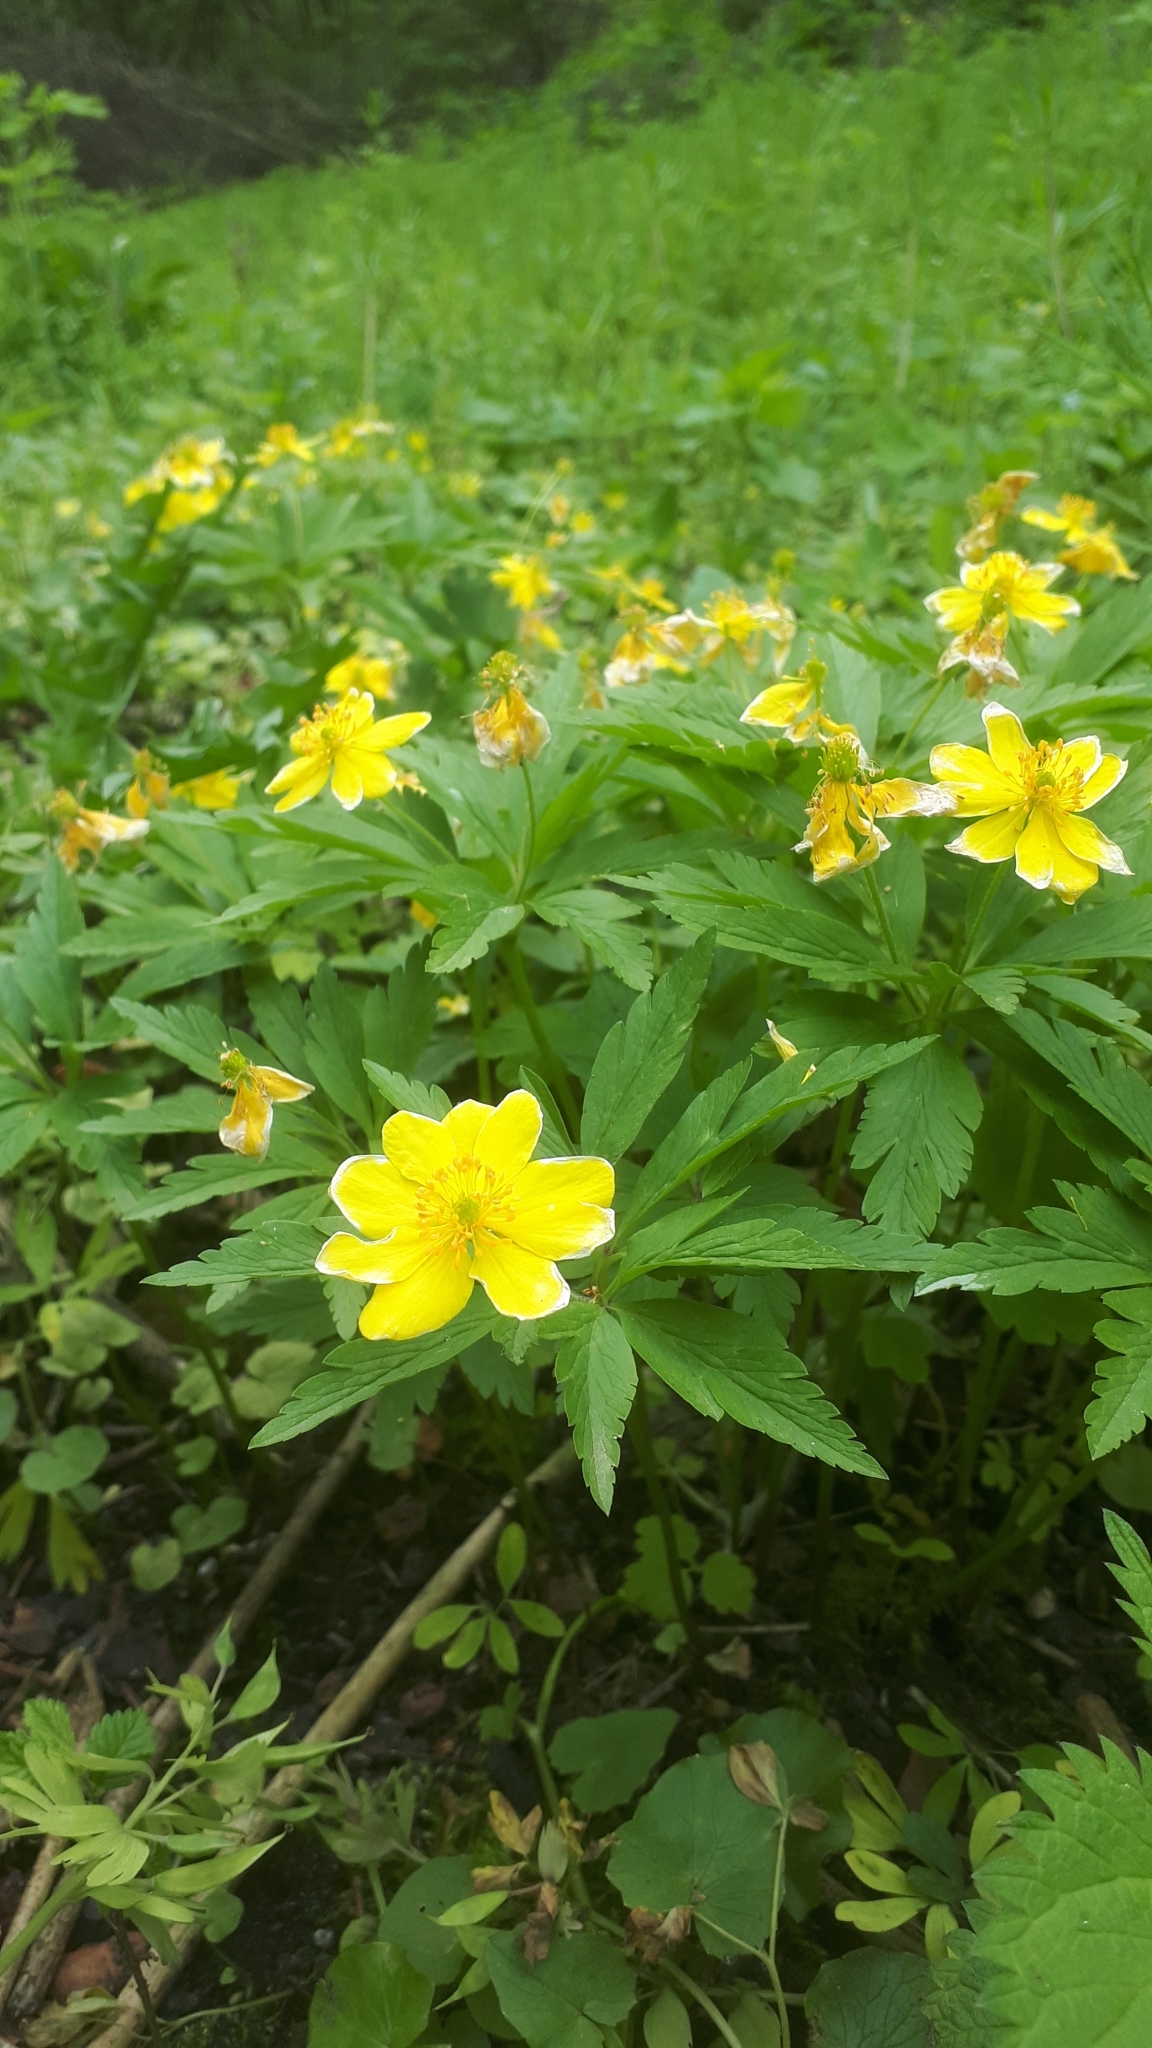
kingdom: Plantae
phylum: Tracheophyta
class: Magnoliopsida
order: Ranunculales
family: Ranunculaceae
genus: Anemone
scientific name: Anemone ranunculoides
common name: Yellow anemone
